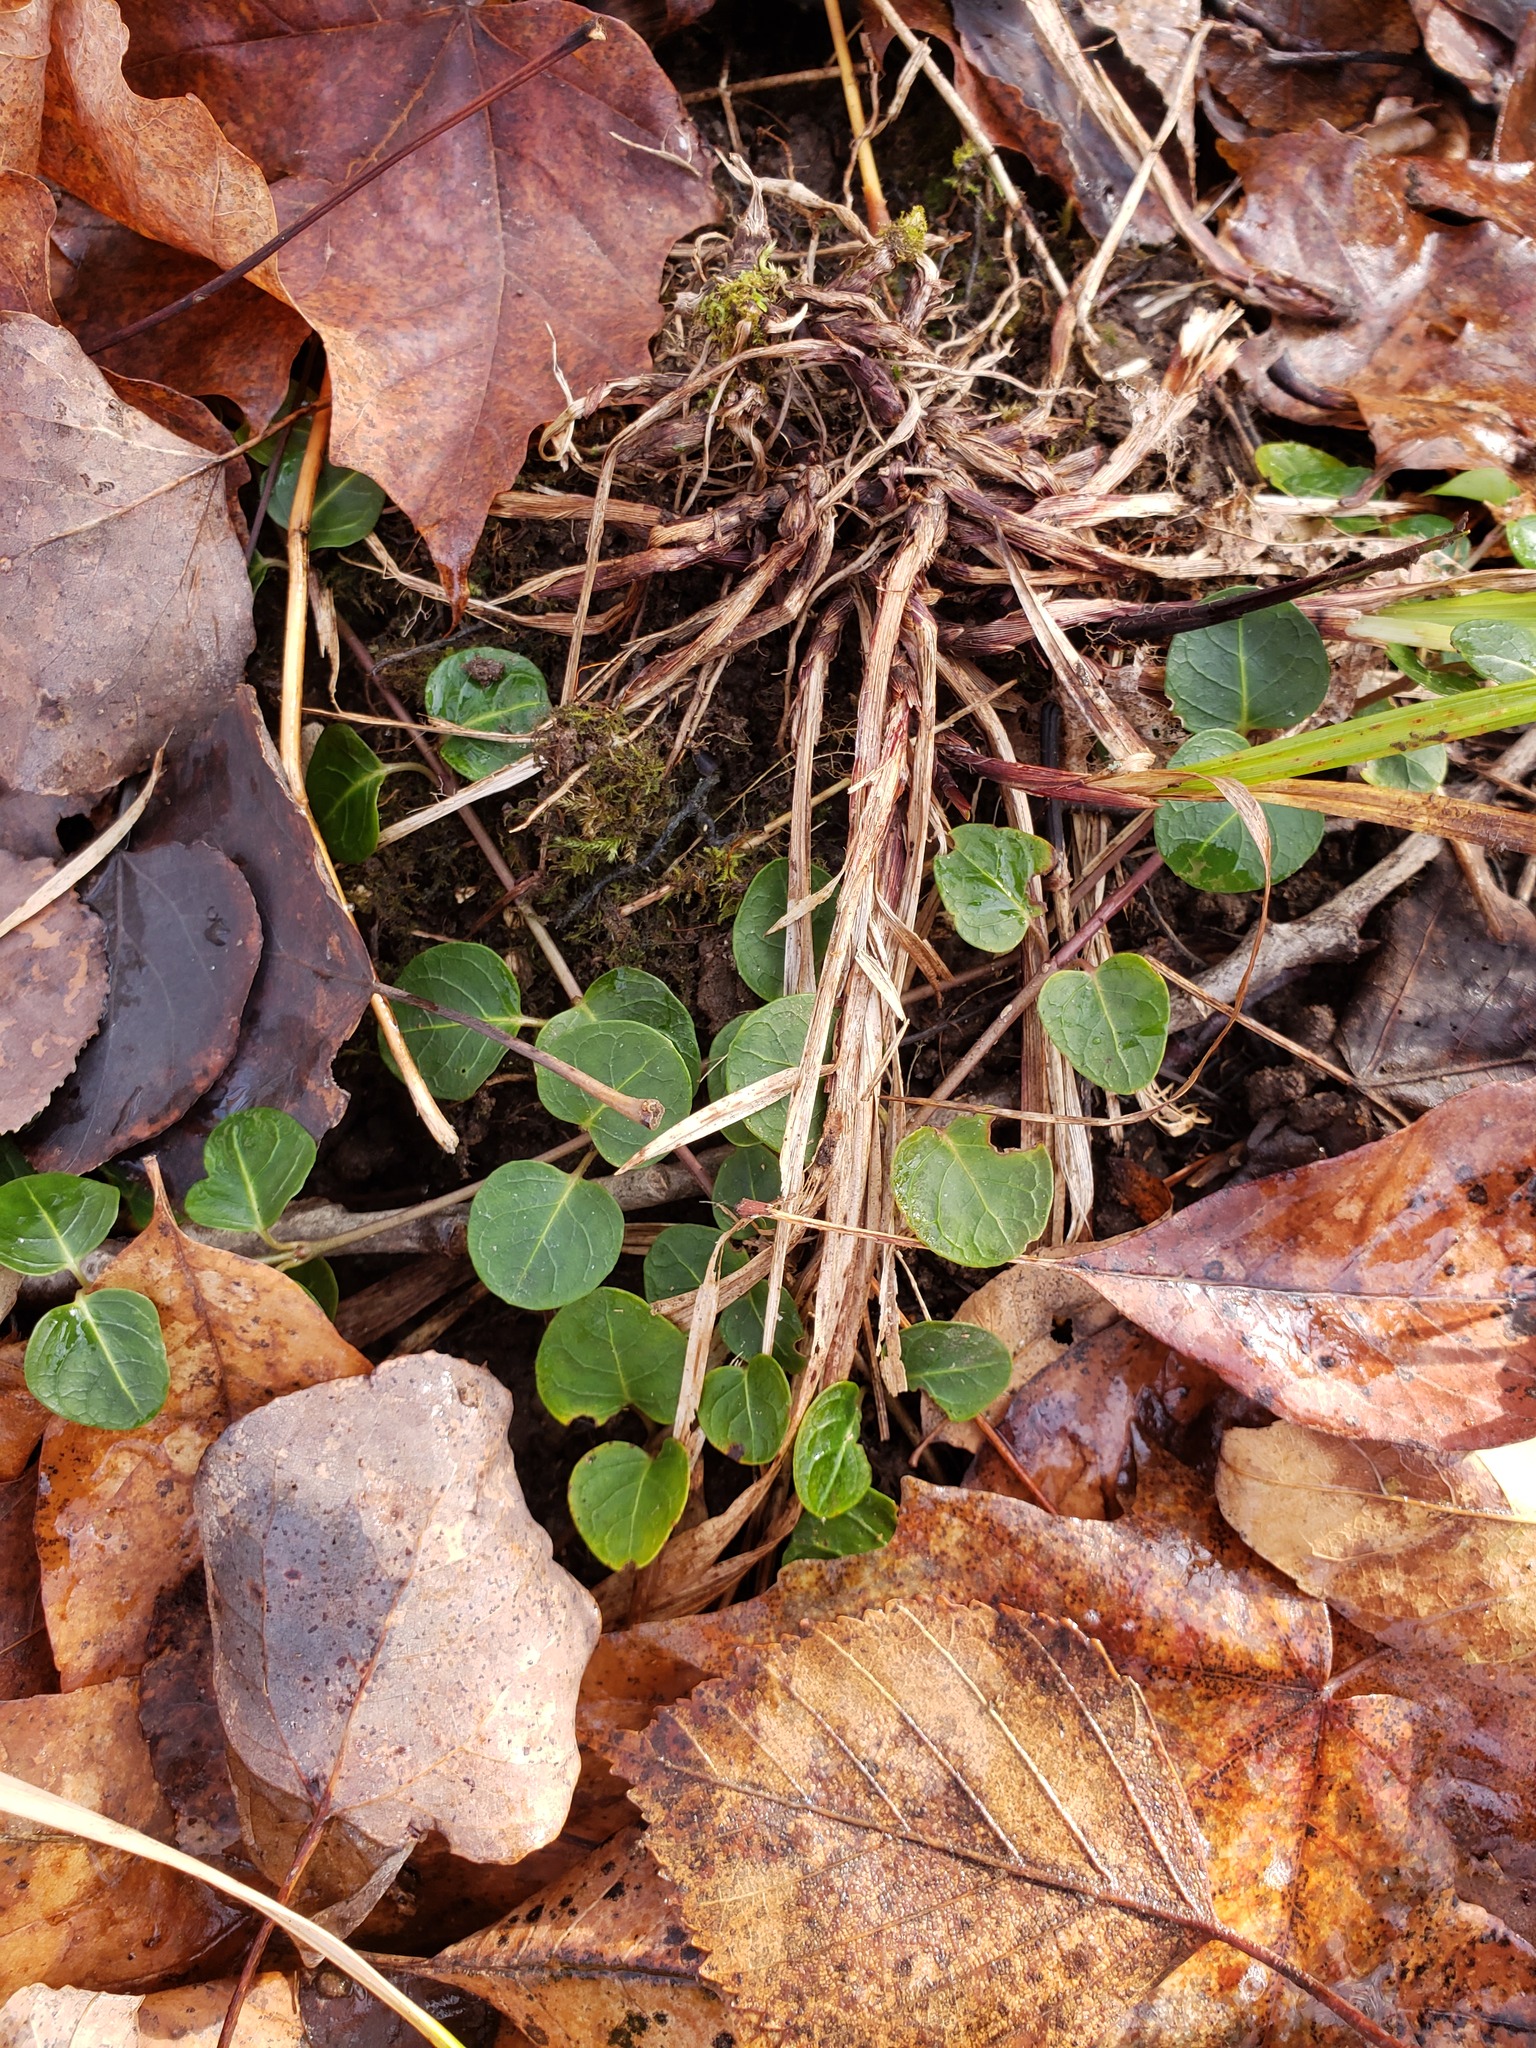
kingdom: Plantae
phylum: Tracheophyta
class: Magnoliopsida
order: Gentianales
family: Rubiaceae
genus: Mitchella
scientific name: Mitchella repens
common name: Partridge-berry
